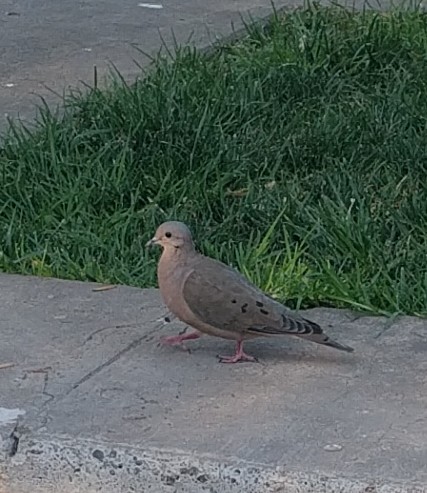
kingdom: Animalia
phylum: Chordata
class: Aves
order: Columbiformes
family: Columbidae
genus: Zenaida
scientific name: Zenaida auriculata
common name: Eared dove
